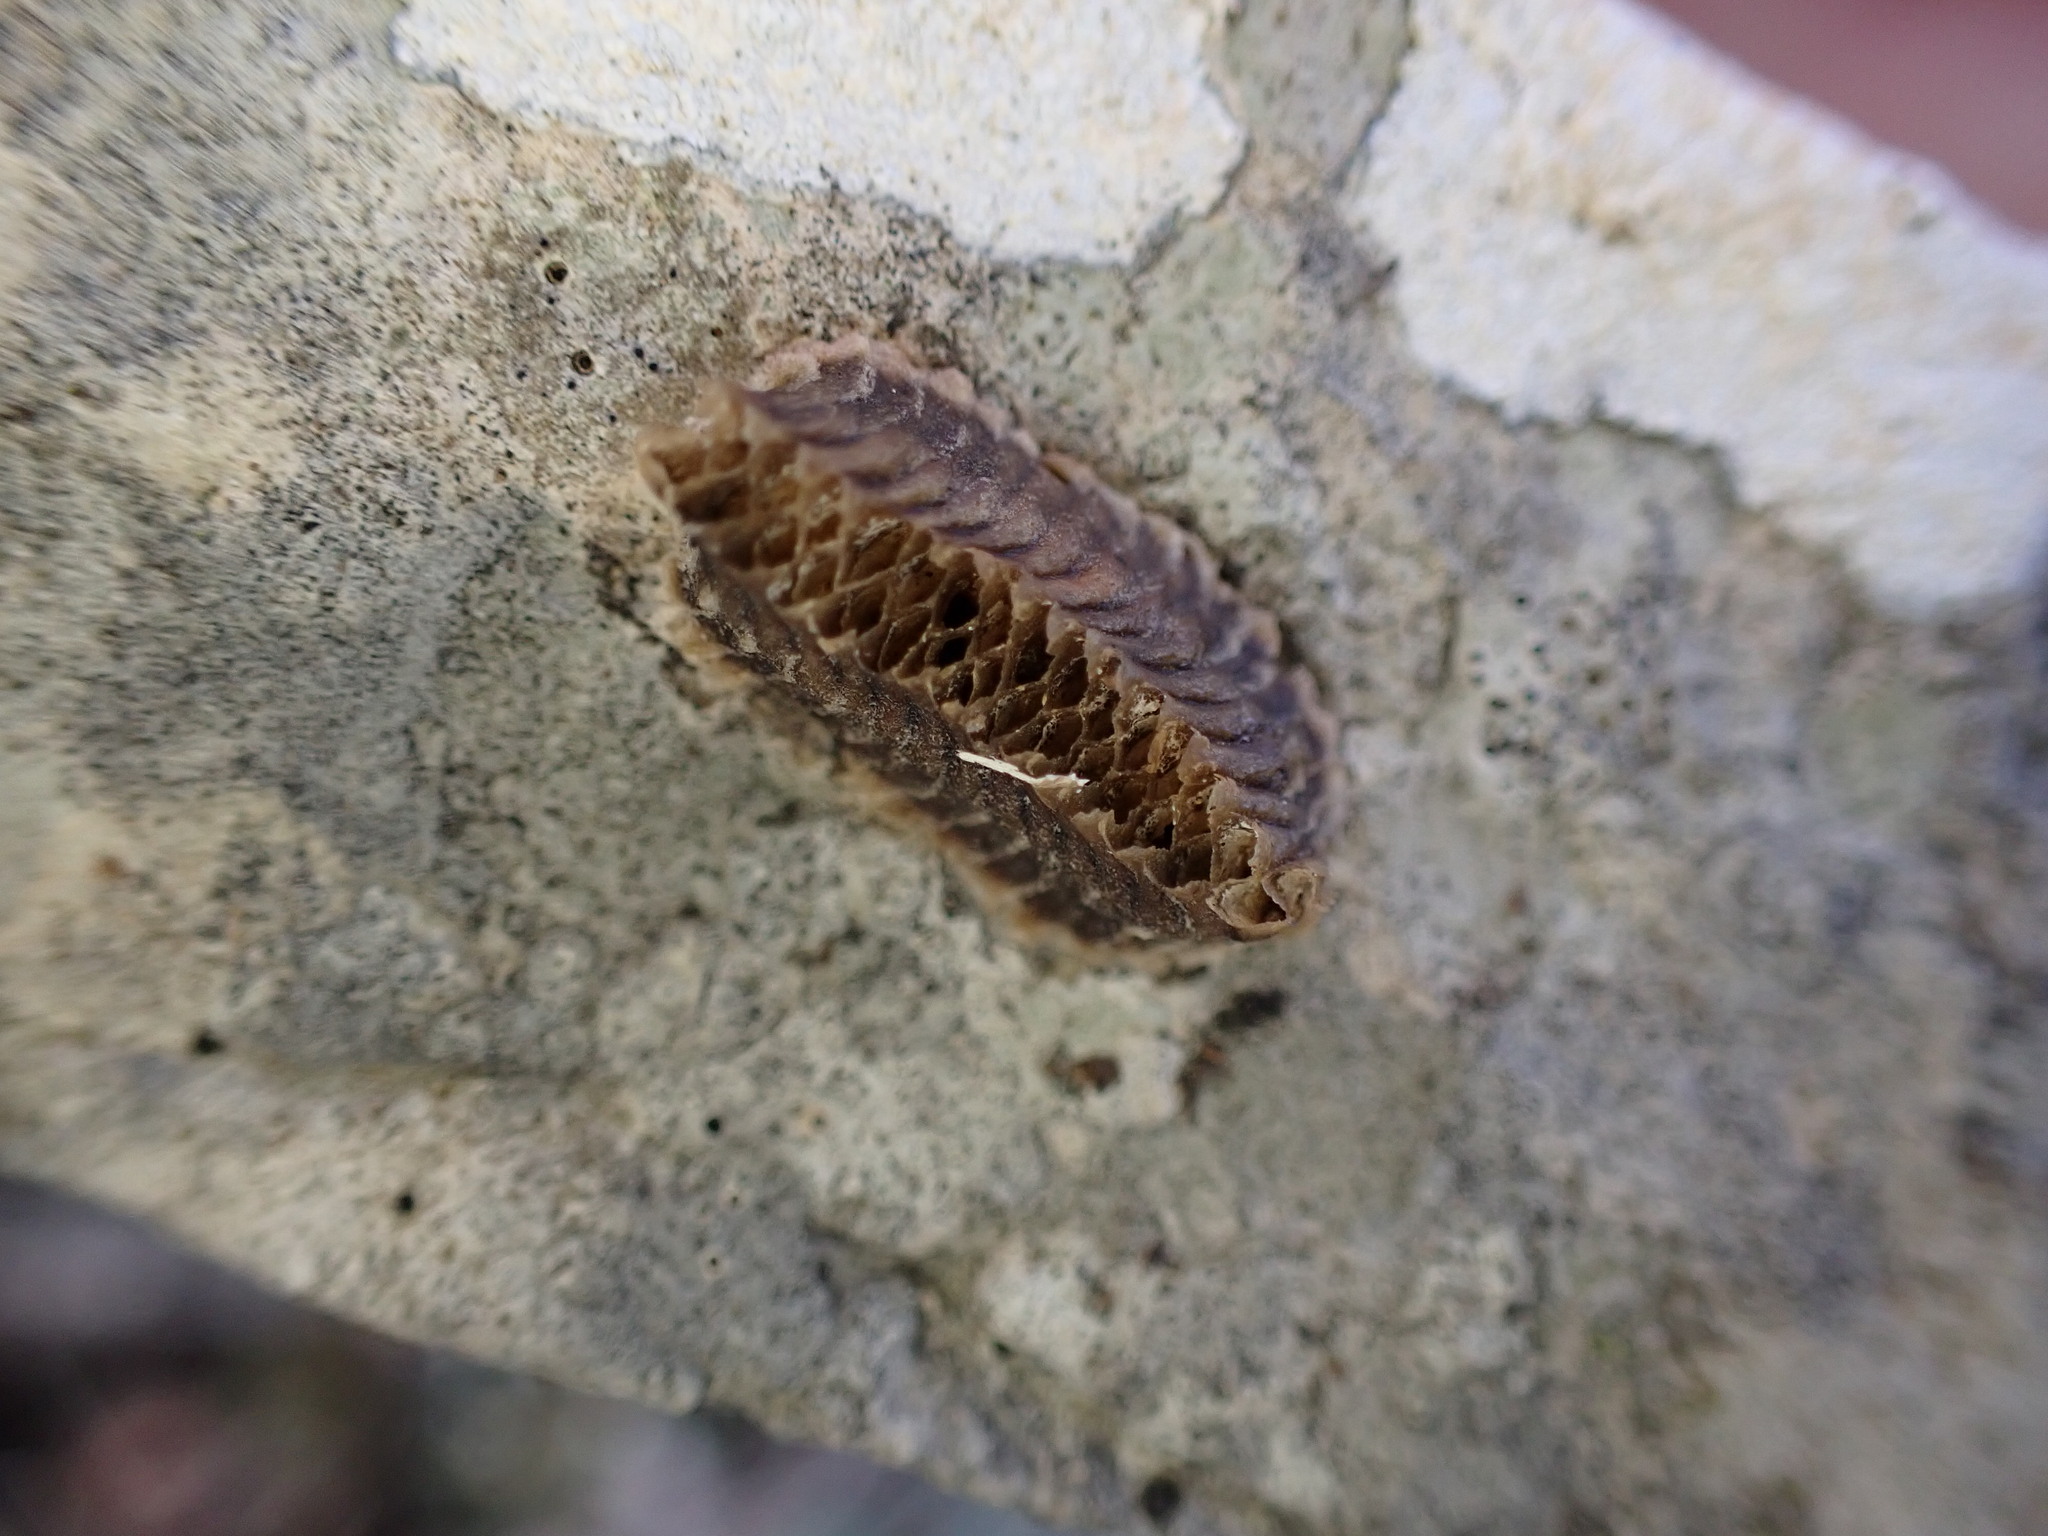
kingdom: Animalia
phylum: Arthropoda
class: Insecta
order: Mantodea
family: Eremiaphilidae
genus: Iris
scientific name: Iris oratoria
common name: Mediterranean mantis
